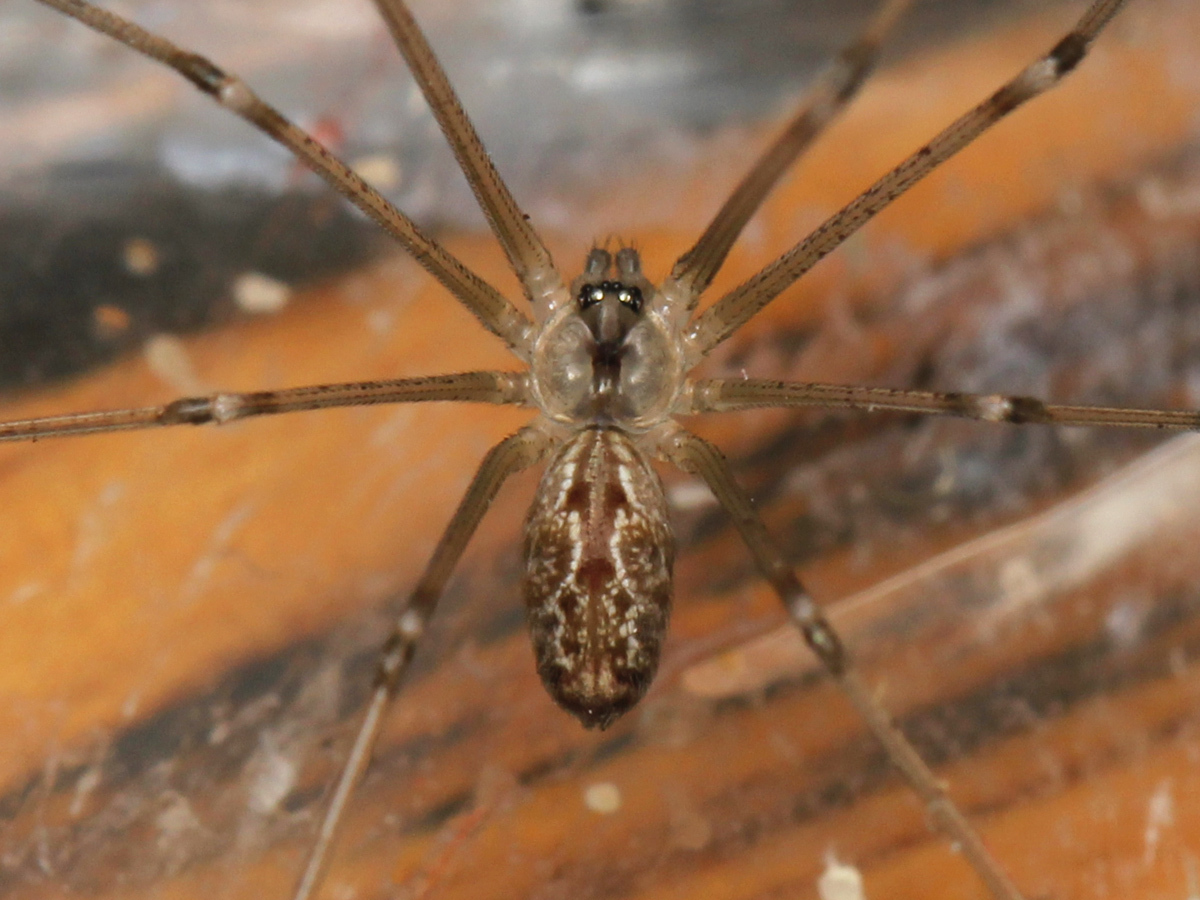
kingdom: Animalia
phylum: Arthropoda
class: Arachnida
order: Araneae
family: Pholcidae
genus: Holocnemus
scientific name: Holocnemus pluchei
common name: Marbled cellar spider
